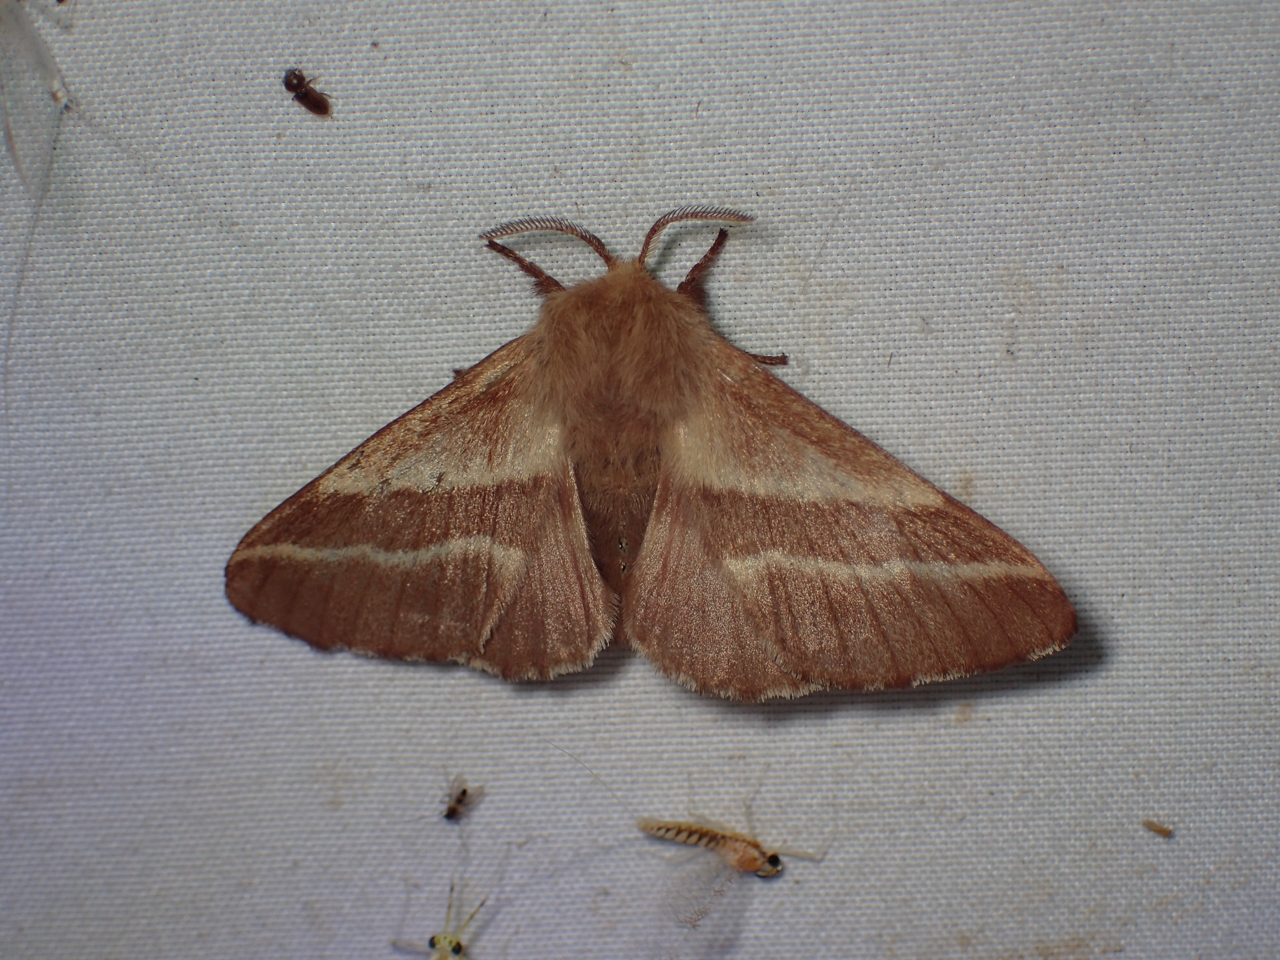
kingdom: Animalia
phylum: Arthropoda
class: Insecta
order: Lepidoptera
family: Lasiocampidae
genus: Malacosoma
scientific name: Malacosoma americana
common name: Eastern tent caterpillar moth
